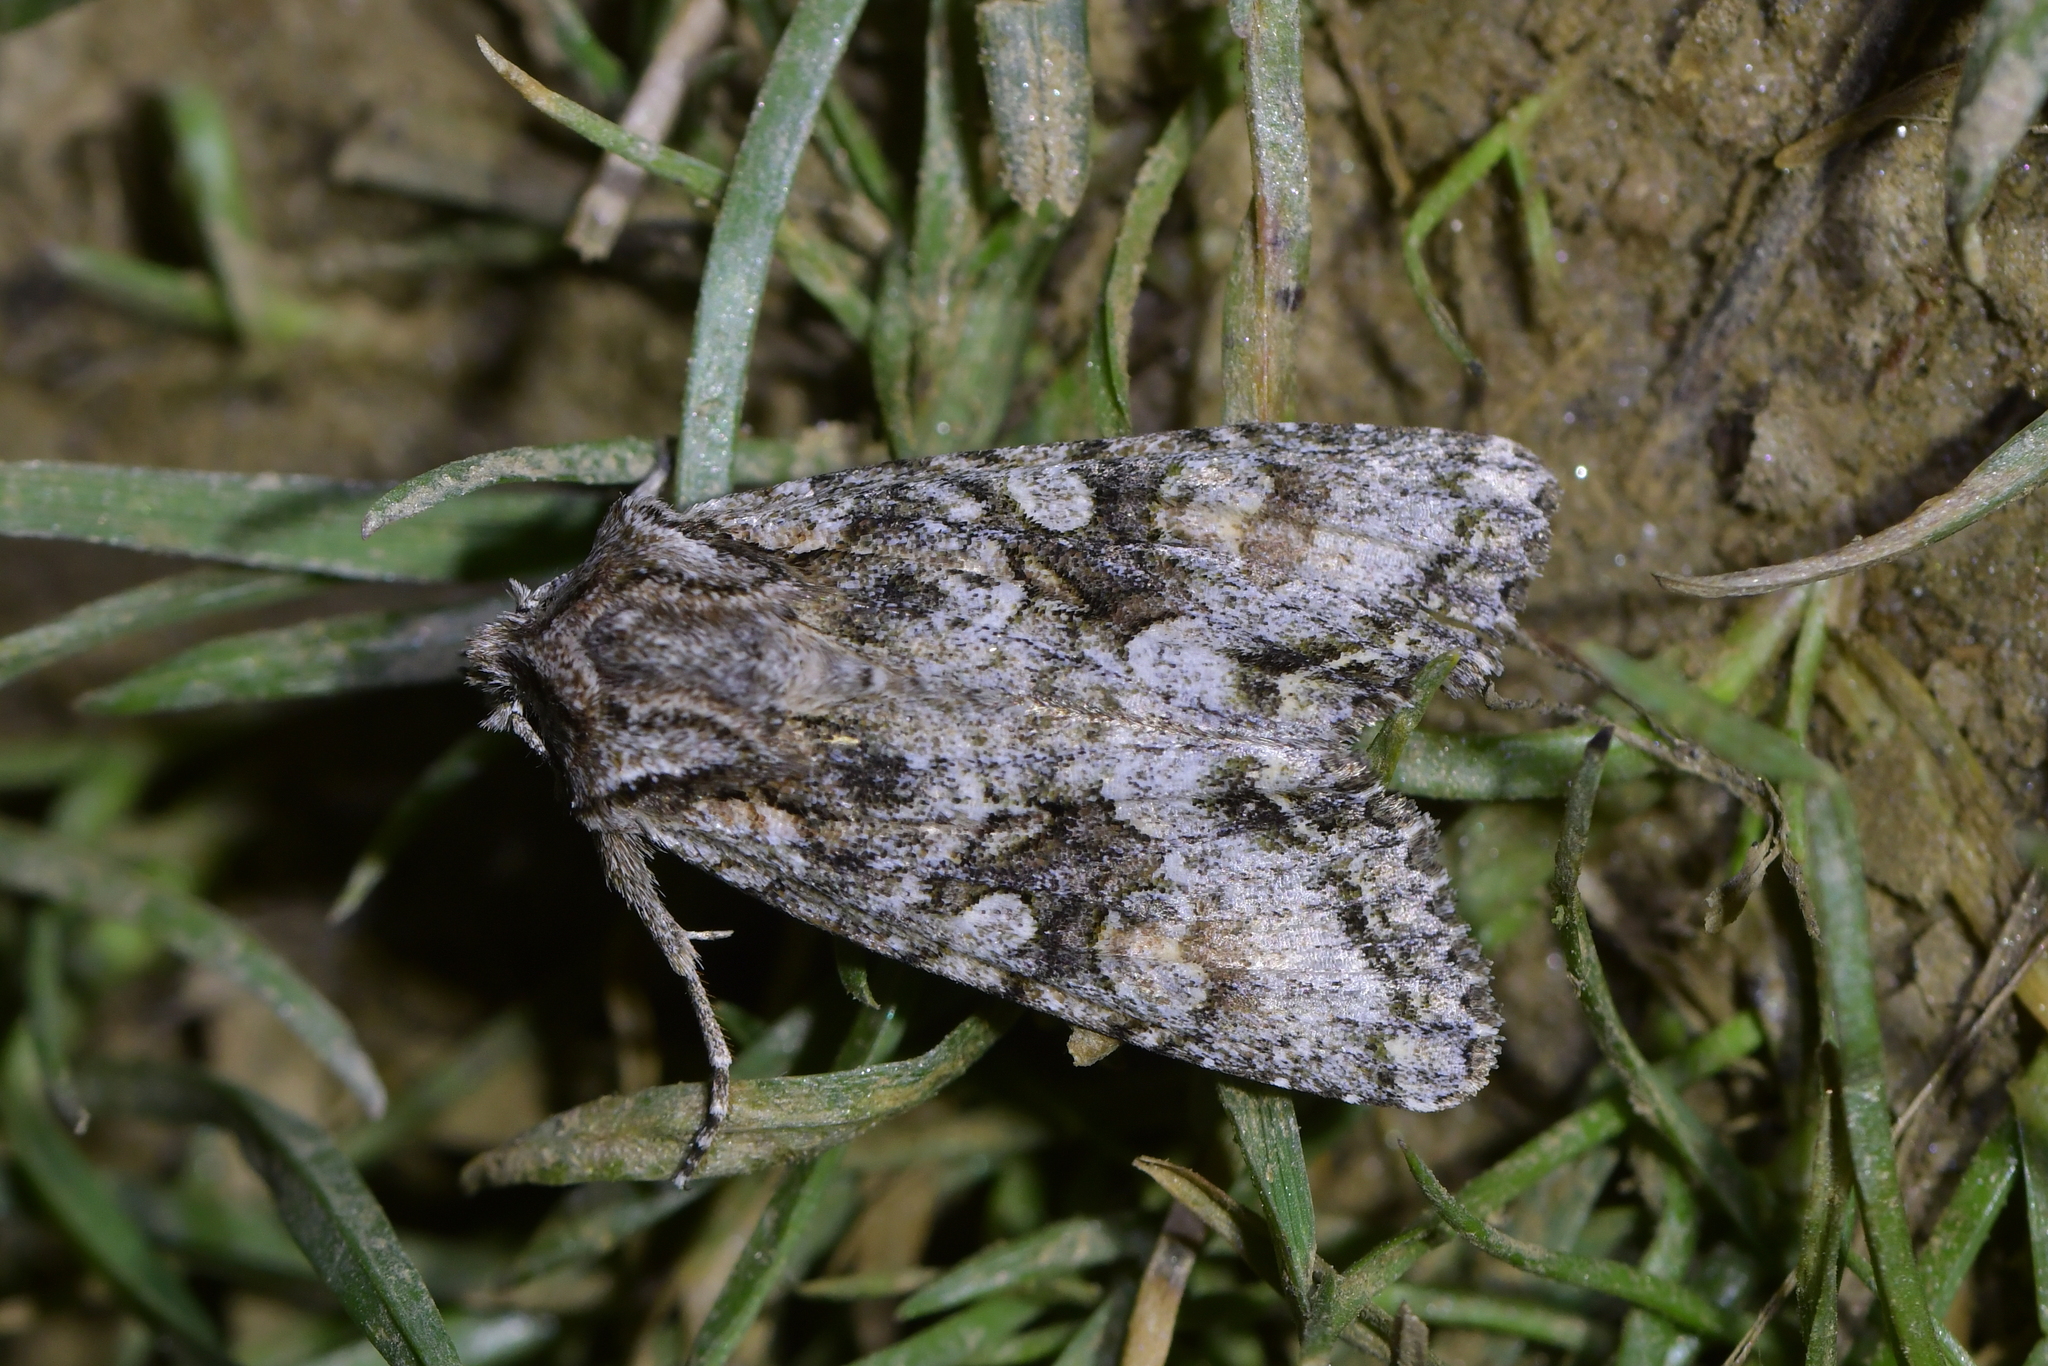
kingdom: Animalia
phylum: Arthropoda
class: Insecta
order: Lepidoptera
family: Noctuidae
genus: Ichneutica
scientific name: Ichneutica mutans
